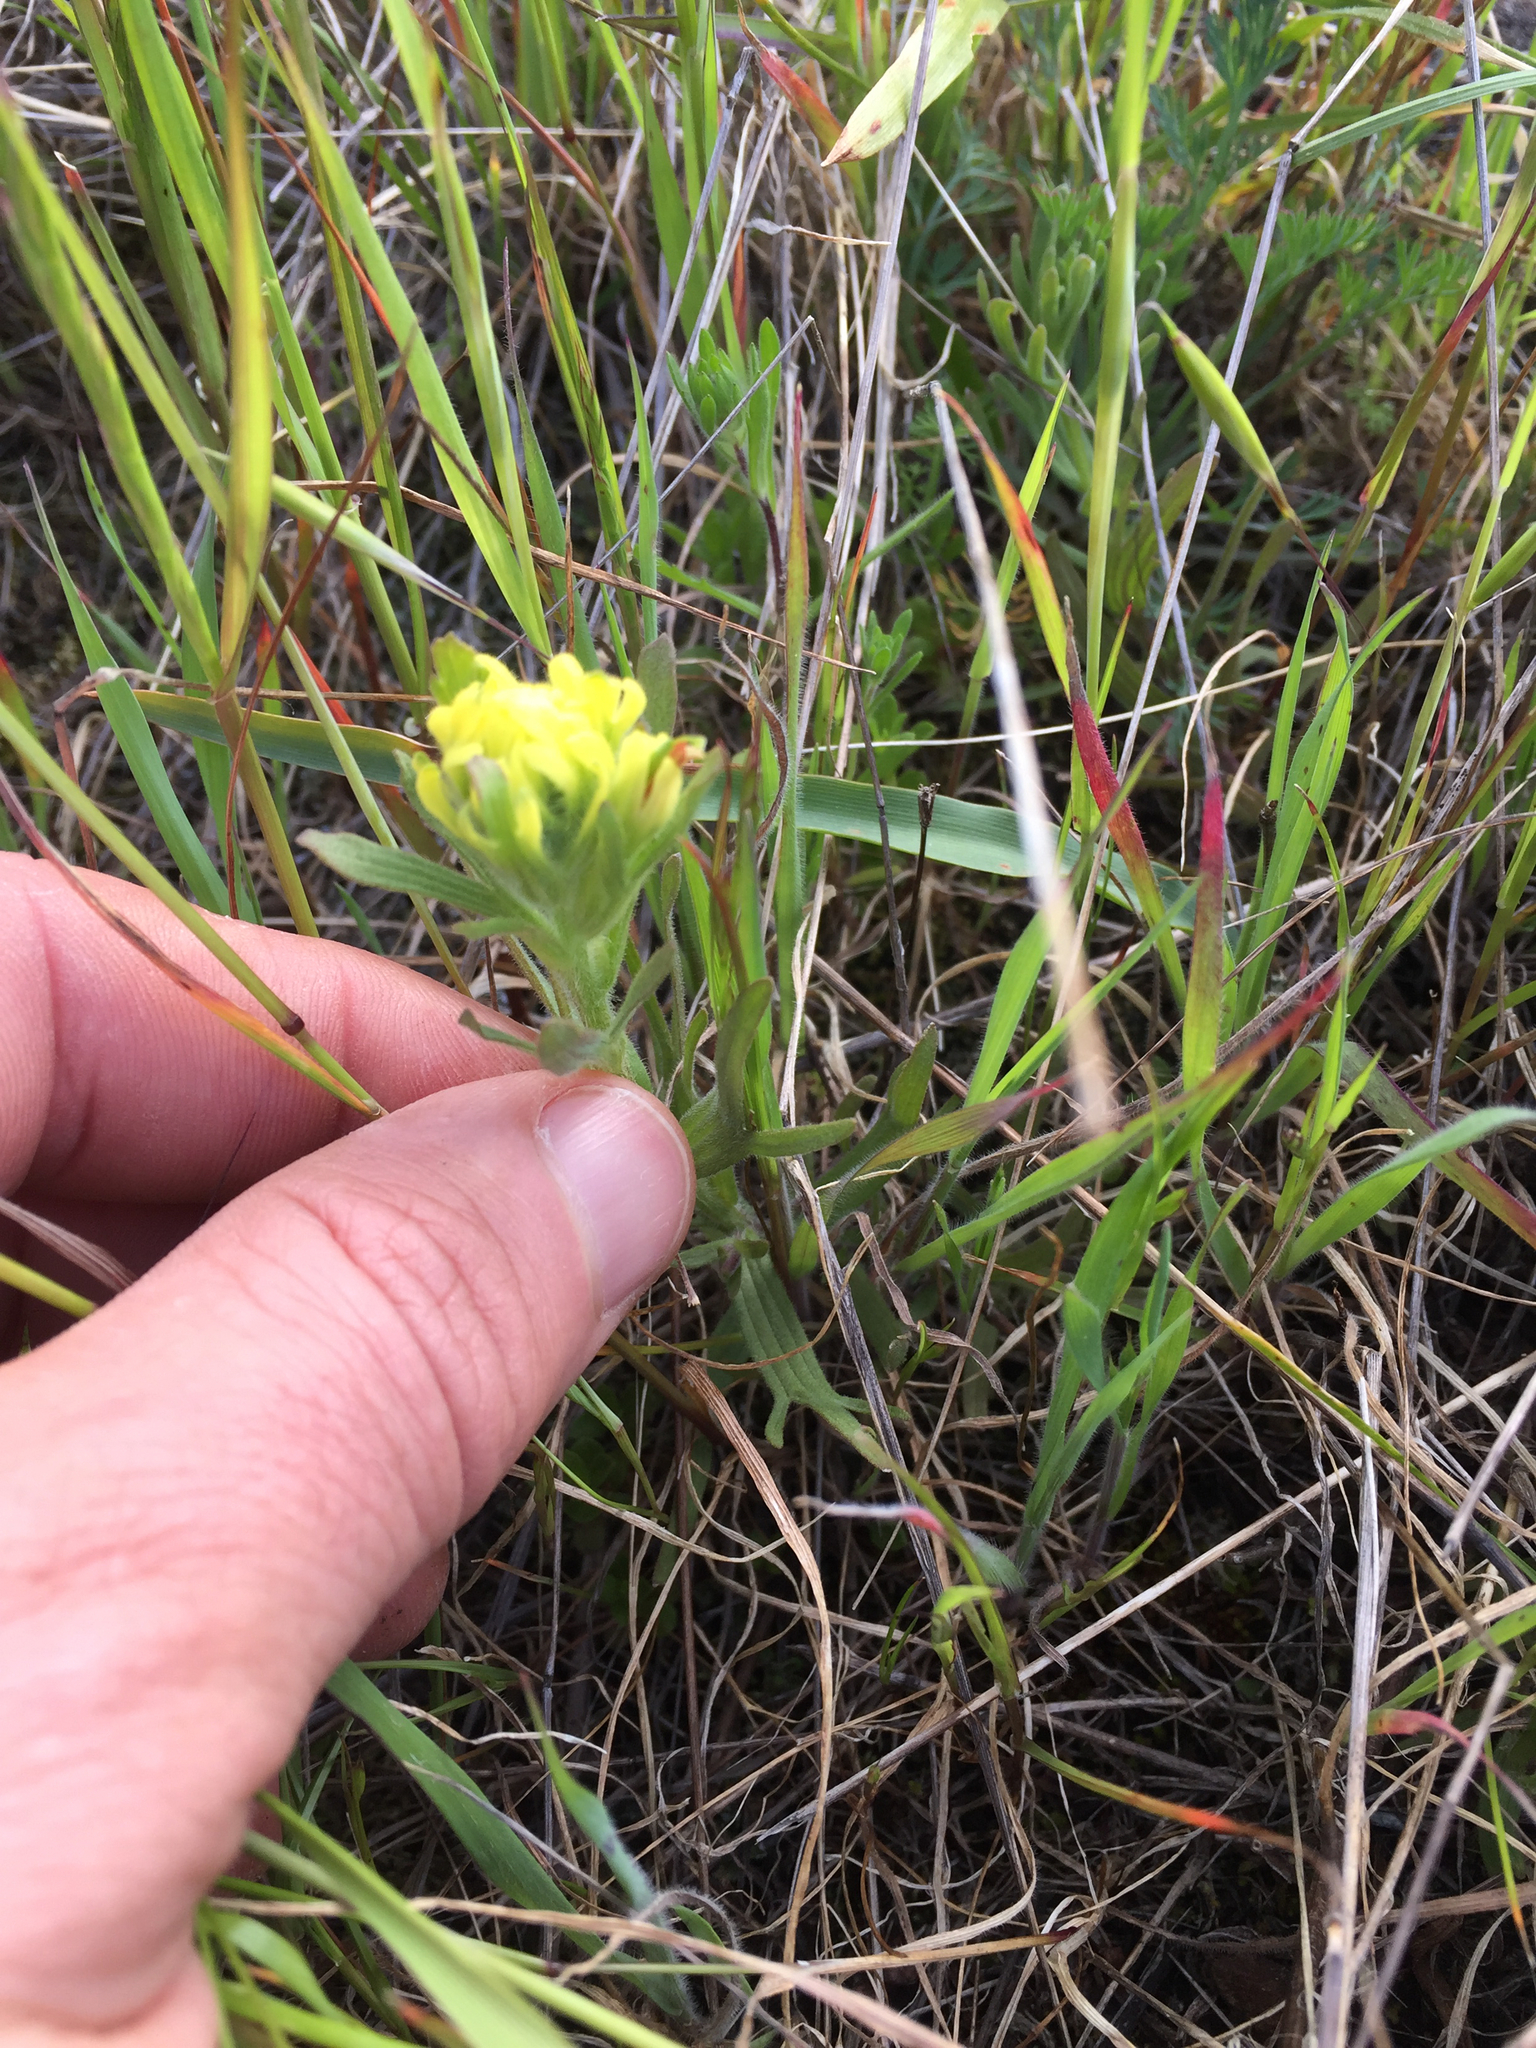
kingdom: Plantae
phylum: Tracheophyta
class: Magnoliopsida
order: Lamiales
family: Orobanchaceae
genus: Castilleja
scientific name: Castilleja affinis
